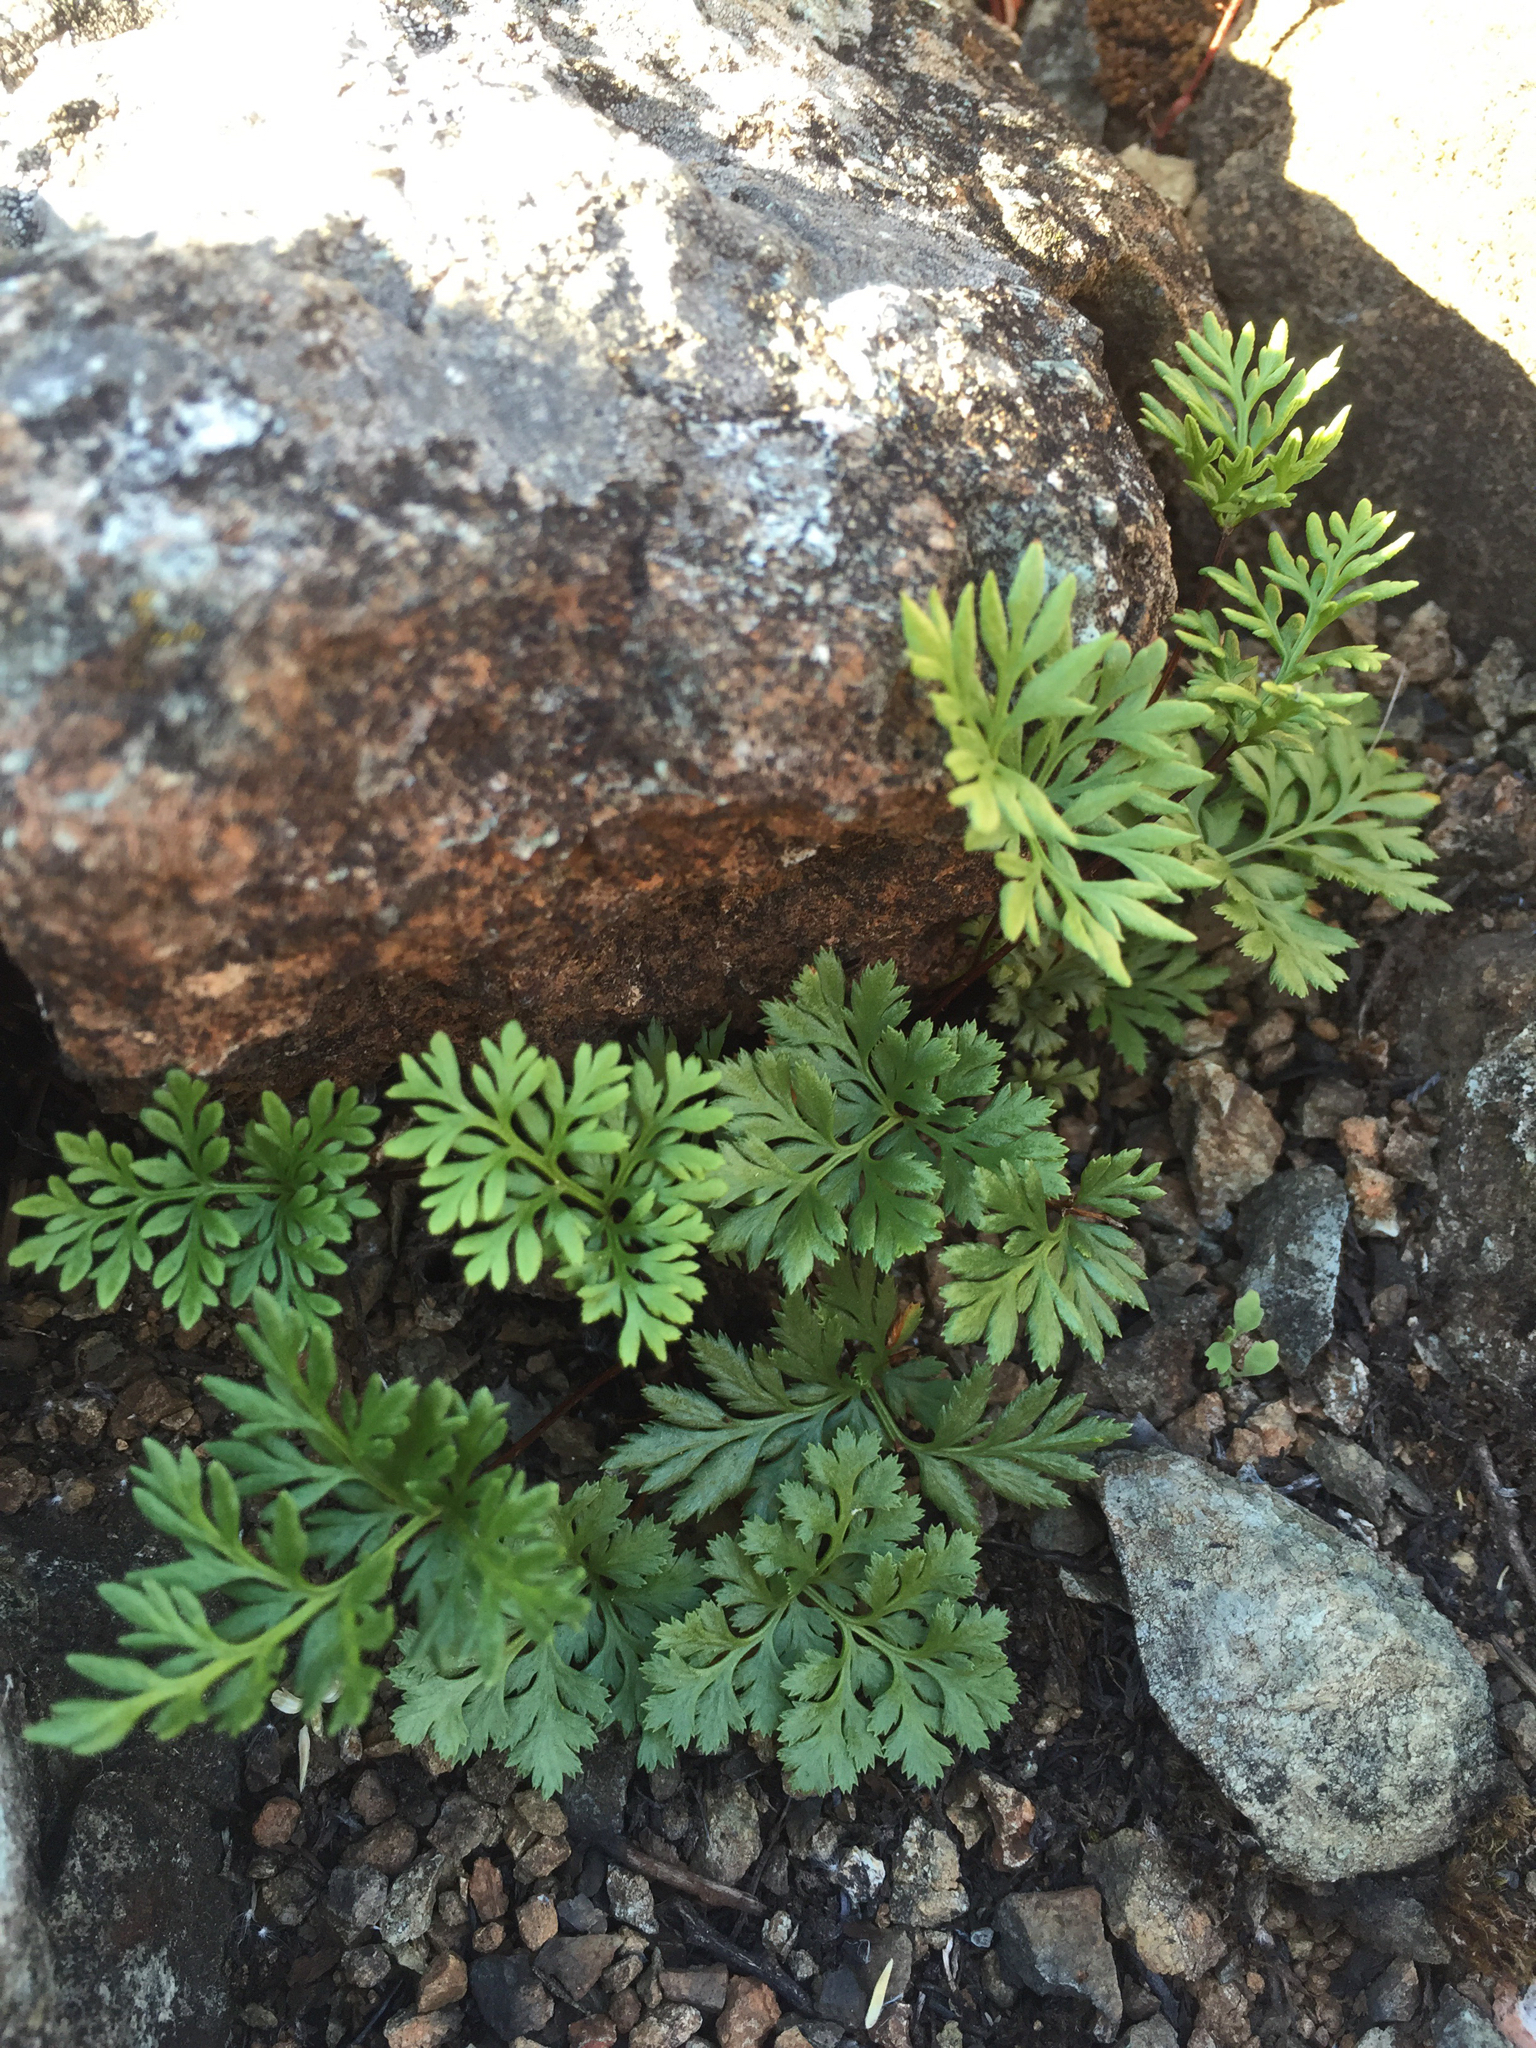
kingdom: Plantae
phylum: Tracheophyta
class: Polypodiopsida
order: Polypodiales
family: Pteridaceae
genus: Aspidotis
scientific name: Aspidotis densa
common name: Indian's dream
